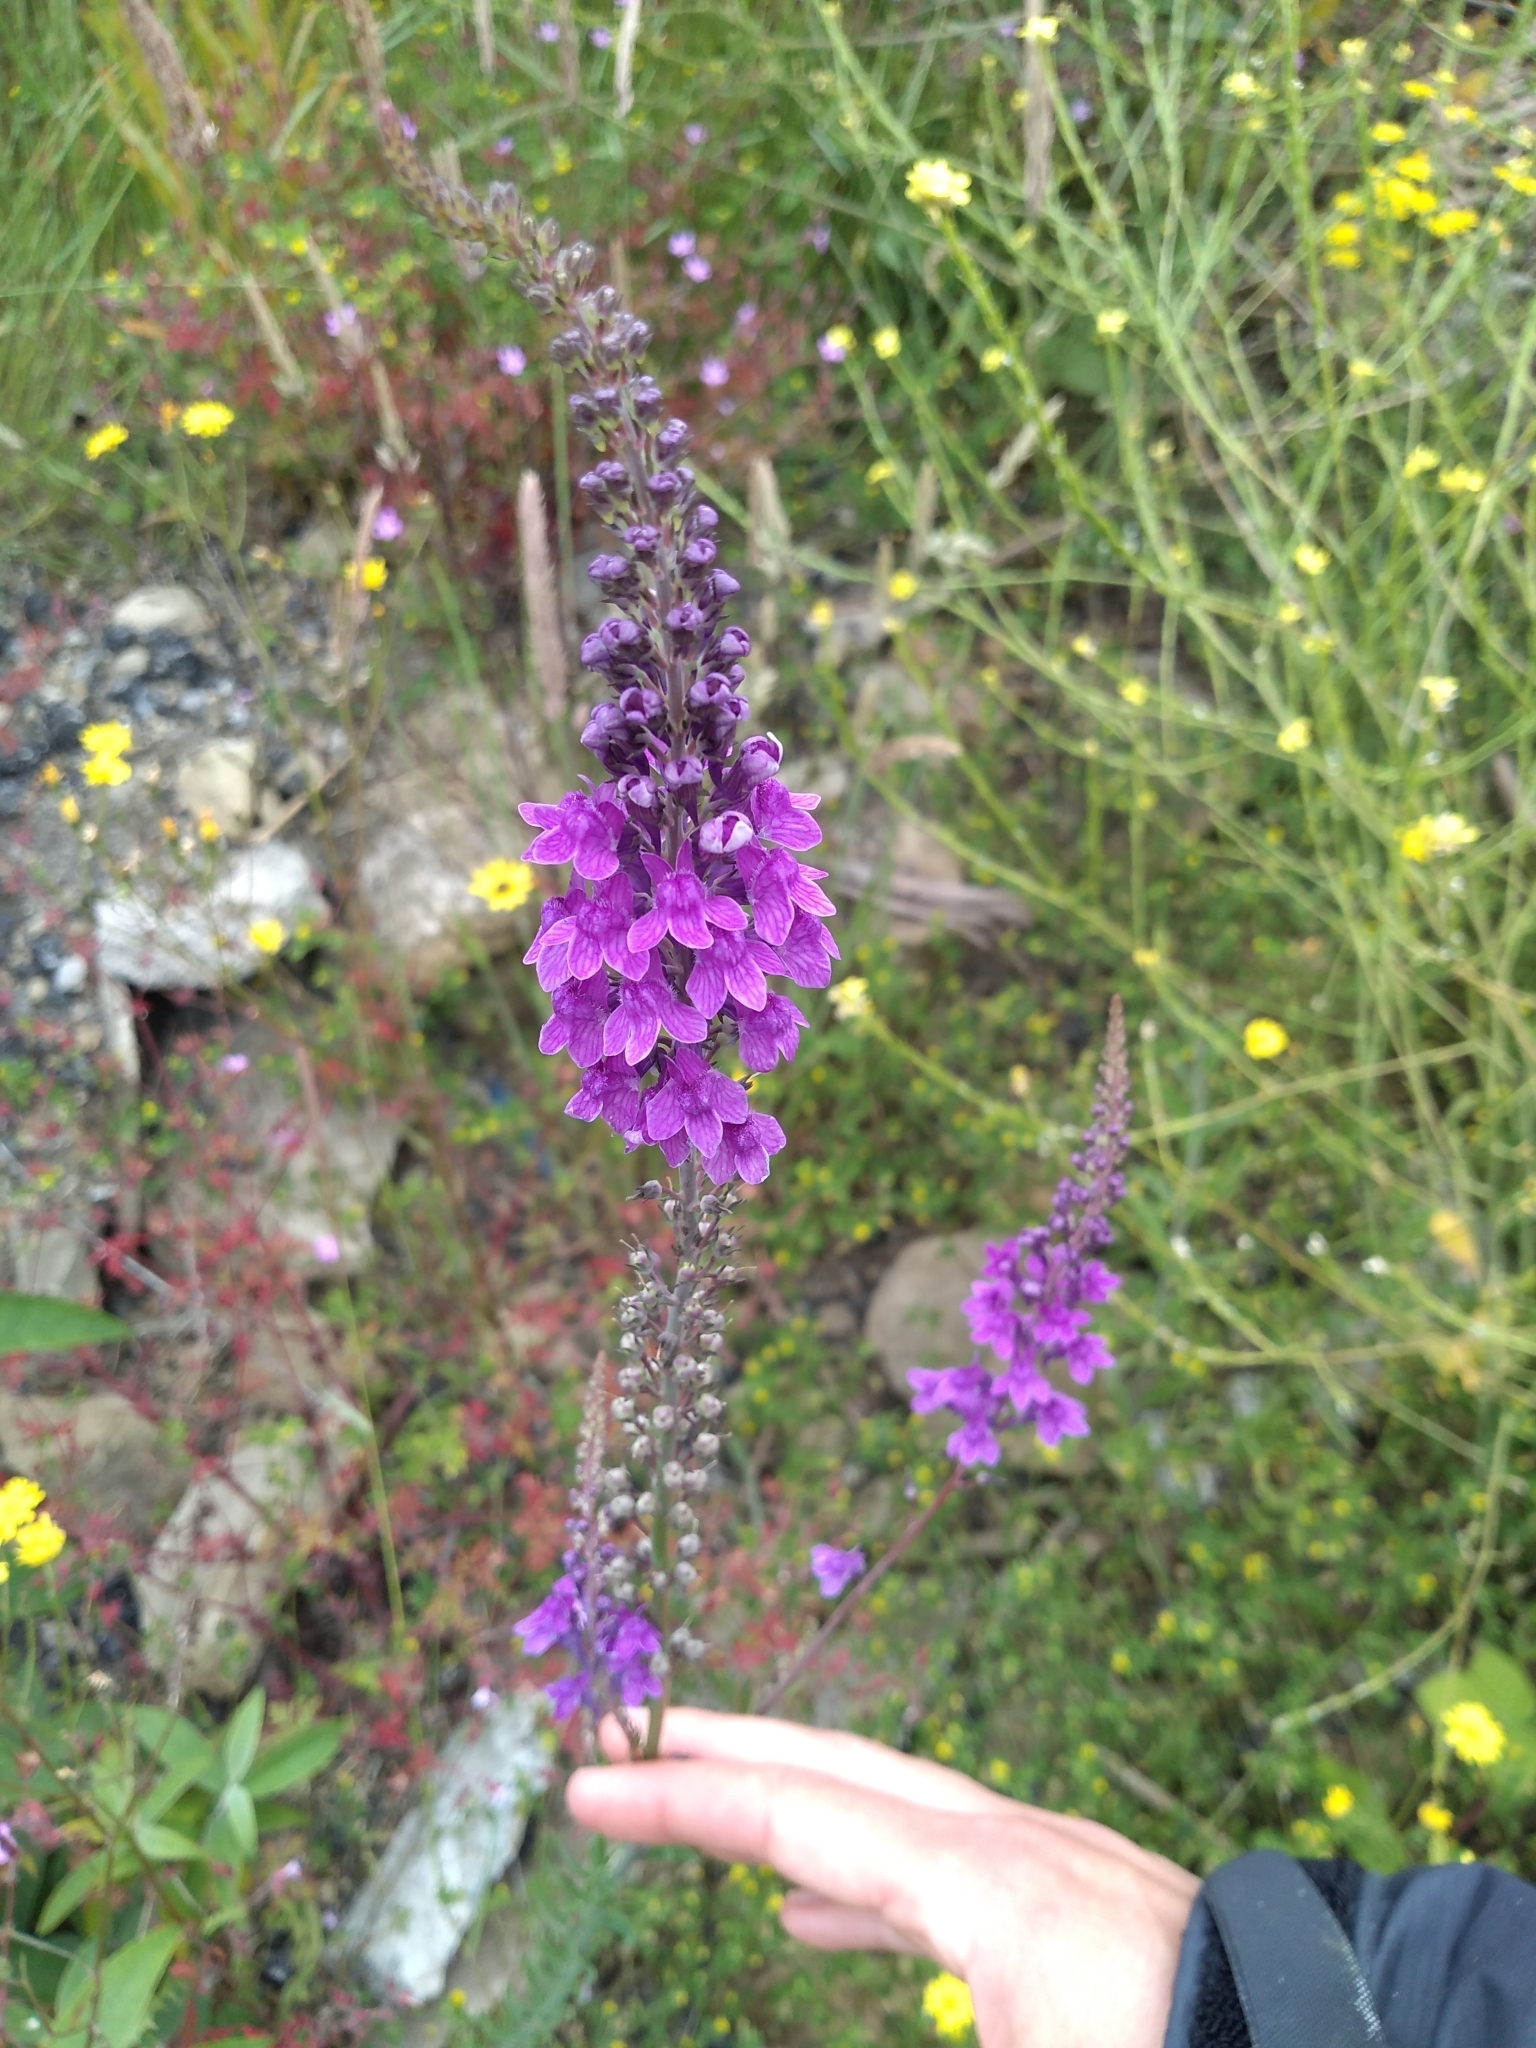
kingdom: Plantae
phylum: Tracheophyta
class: Magnoliopsida
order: Lamiales
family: Plantaginaceae
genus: Linaria
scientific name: Linaria purpurea
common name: Purple toadflax
